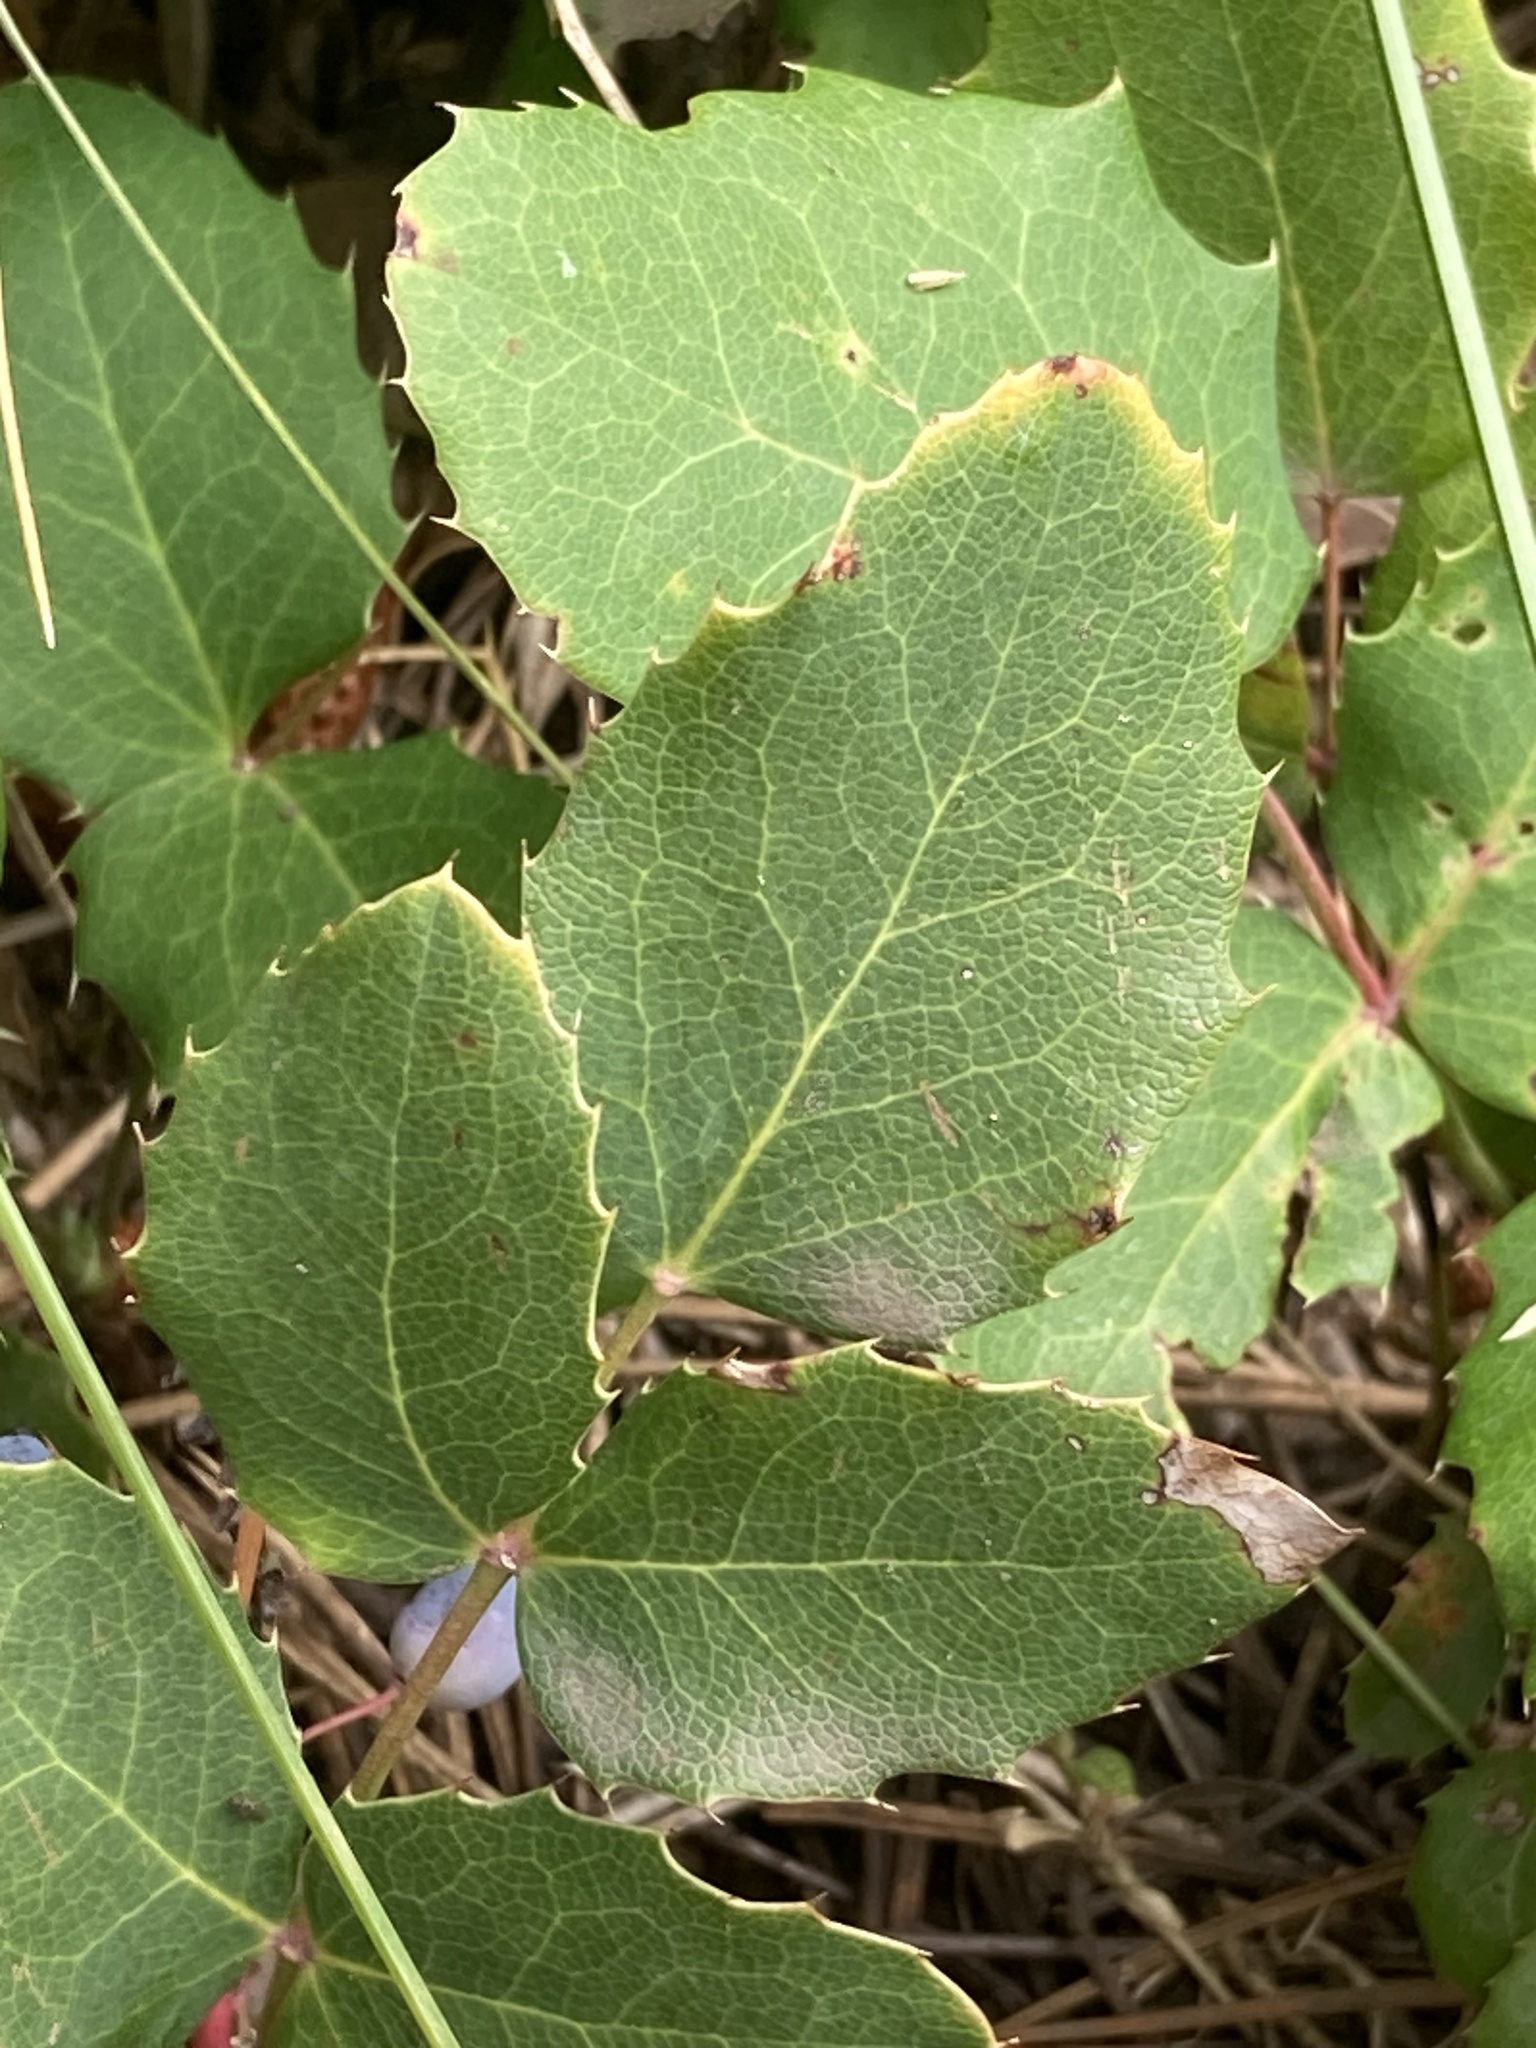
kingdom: Plantae
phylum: Tracheophyta
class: Magnoliopsida
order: Ranunculales
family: Berberidaceae
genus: Mahonia
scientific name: Mahonia repens
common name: Creeping oregon-grape
